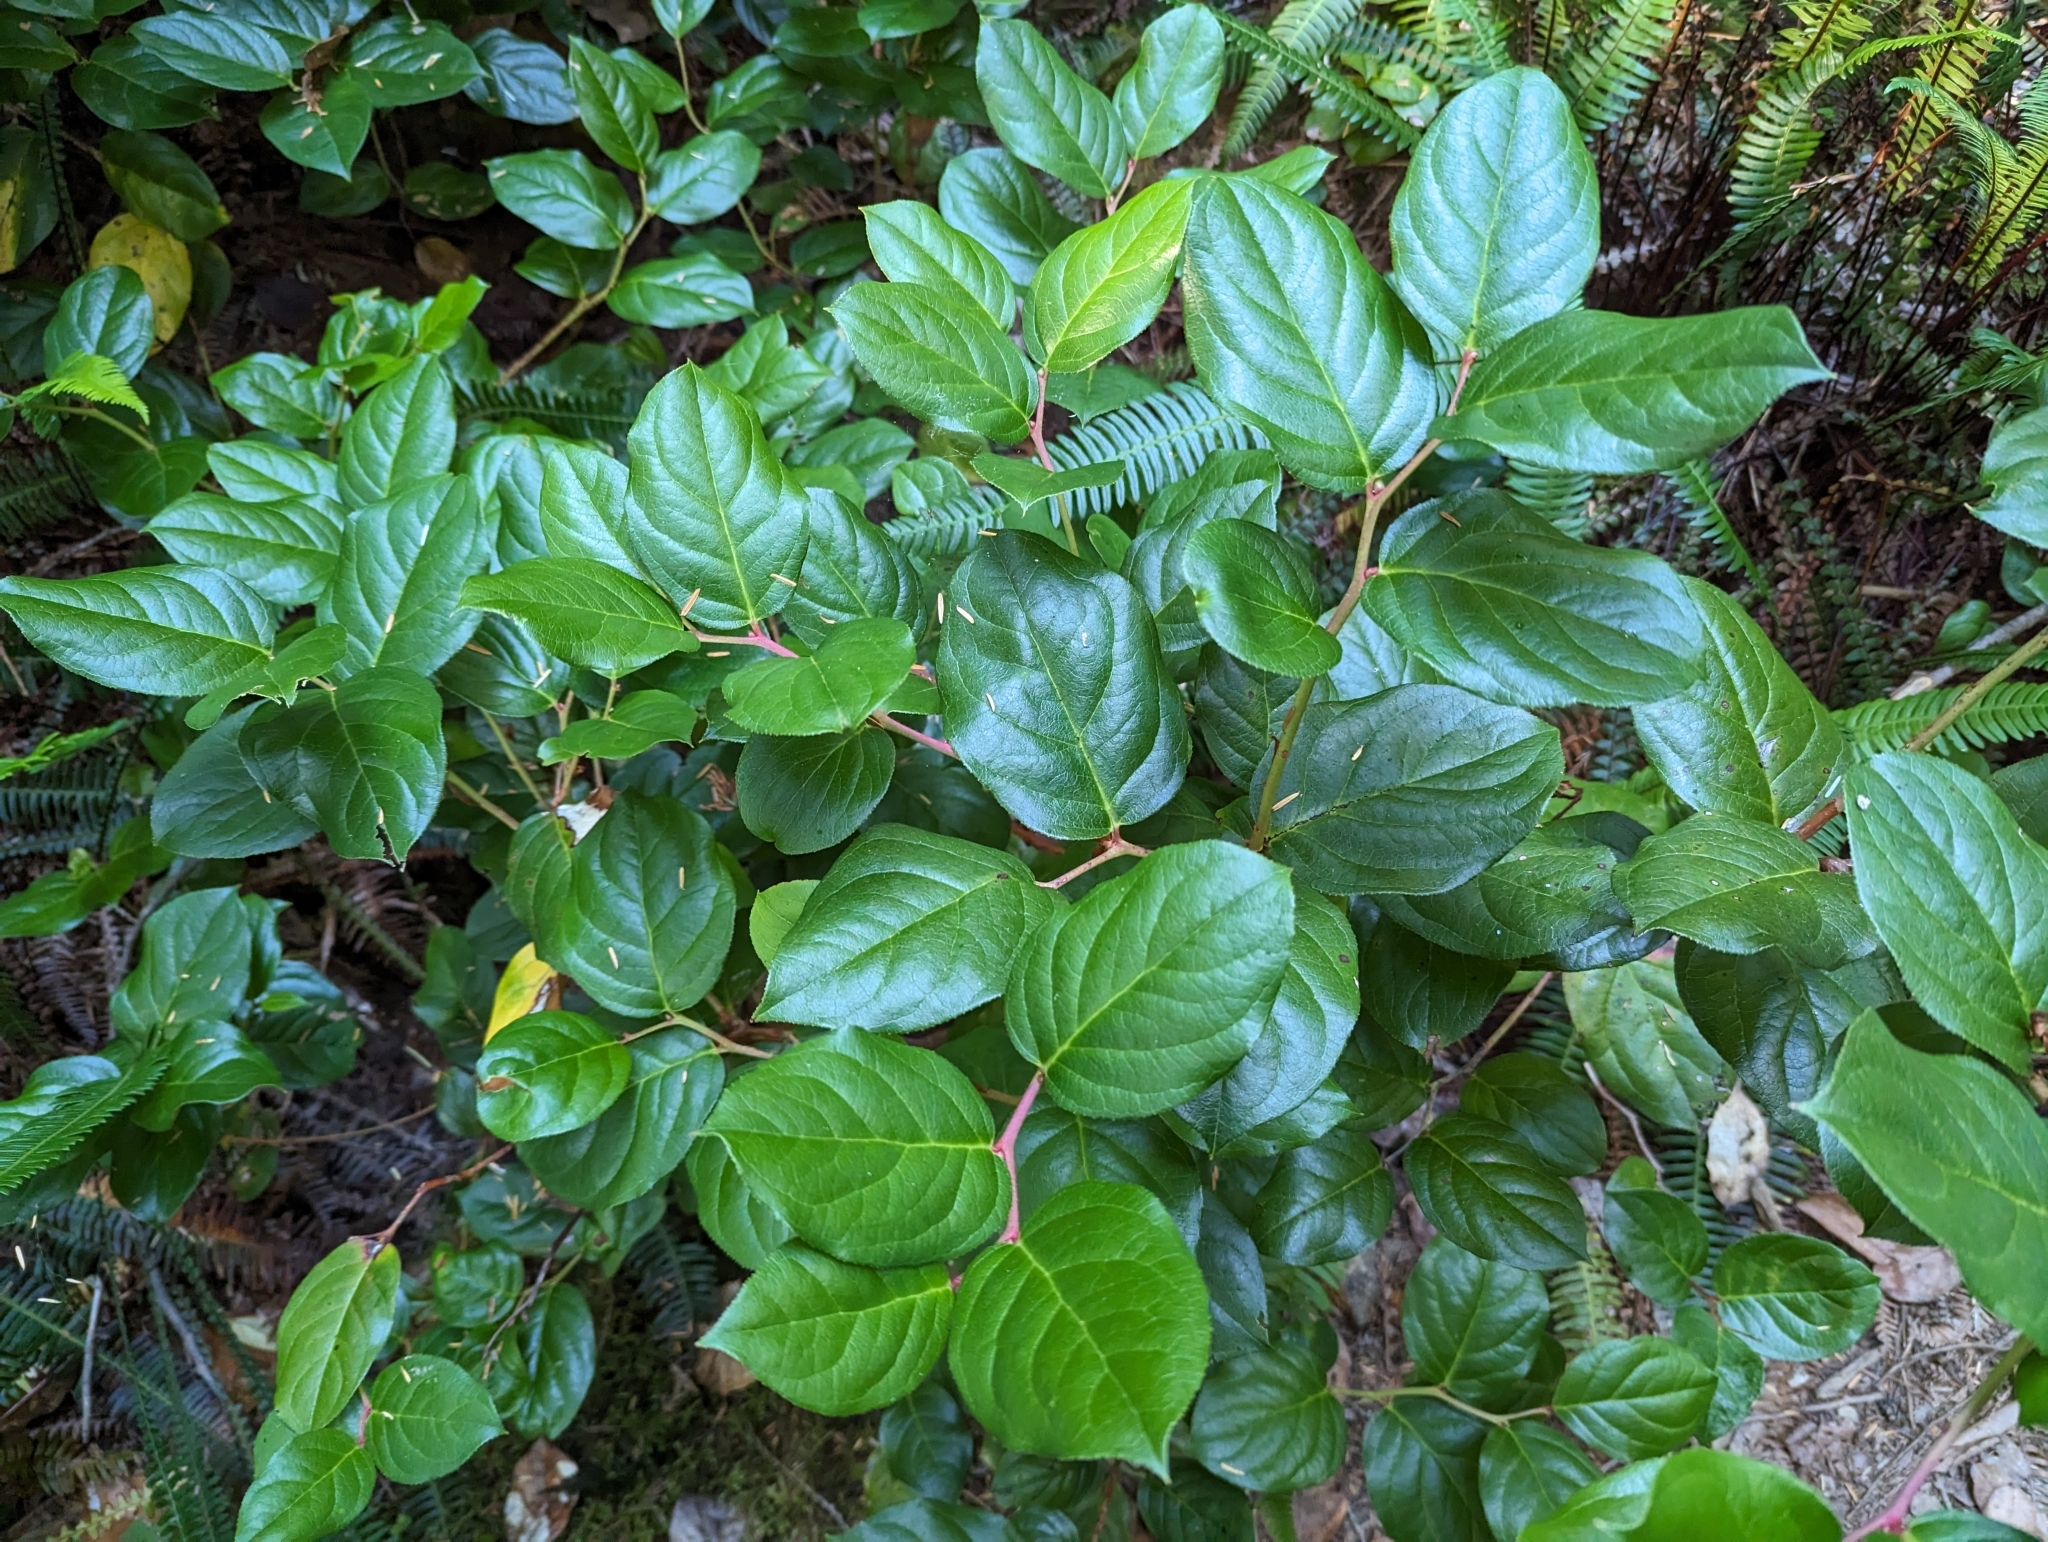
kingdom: Plantae
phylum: Tracheophyta
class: Magnoliopsida
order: Ericales
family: Ericaceae
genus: Gaultheria
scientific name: Gaultheria shallon
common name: Shallon
